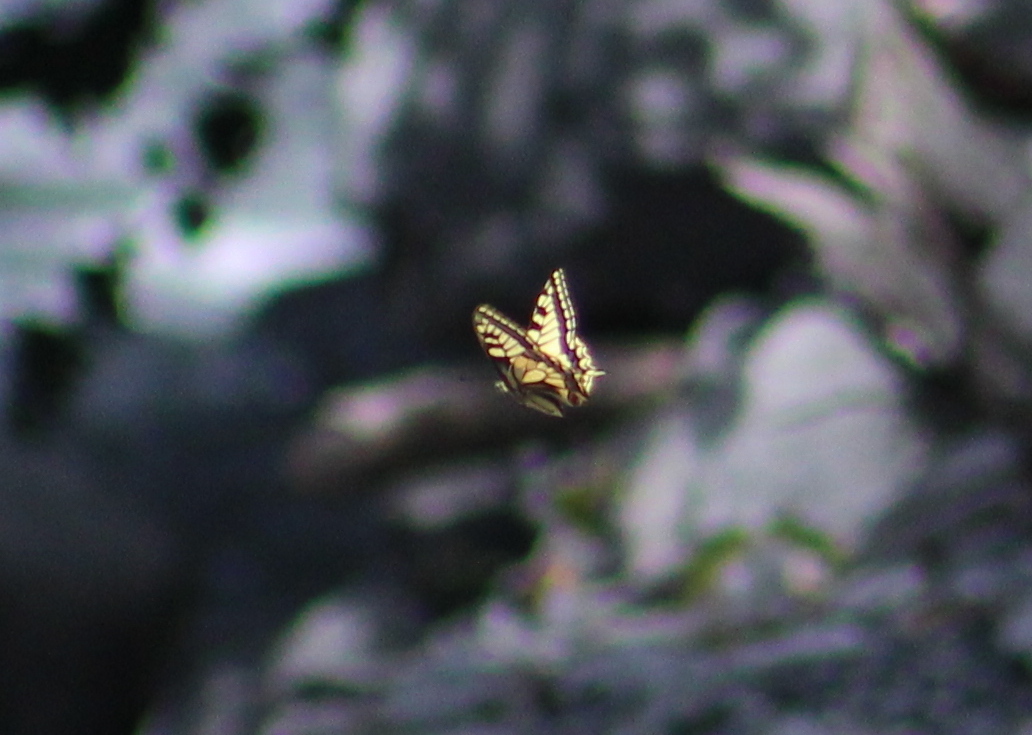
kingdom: Animalia
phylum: Arthropoda
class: Insecta
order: Lepidoptera
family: Papilionidae
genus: Papilio
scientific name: Papilio machaon
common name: Swallowtail
